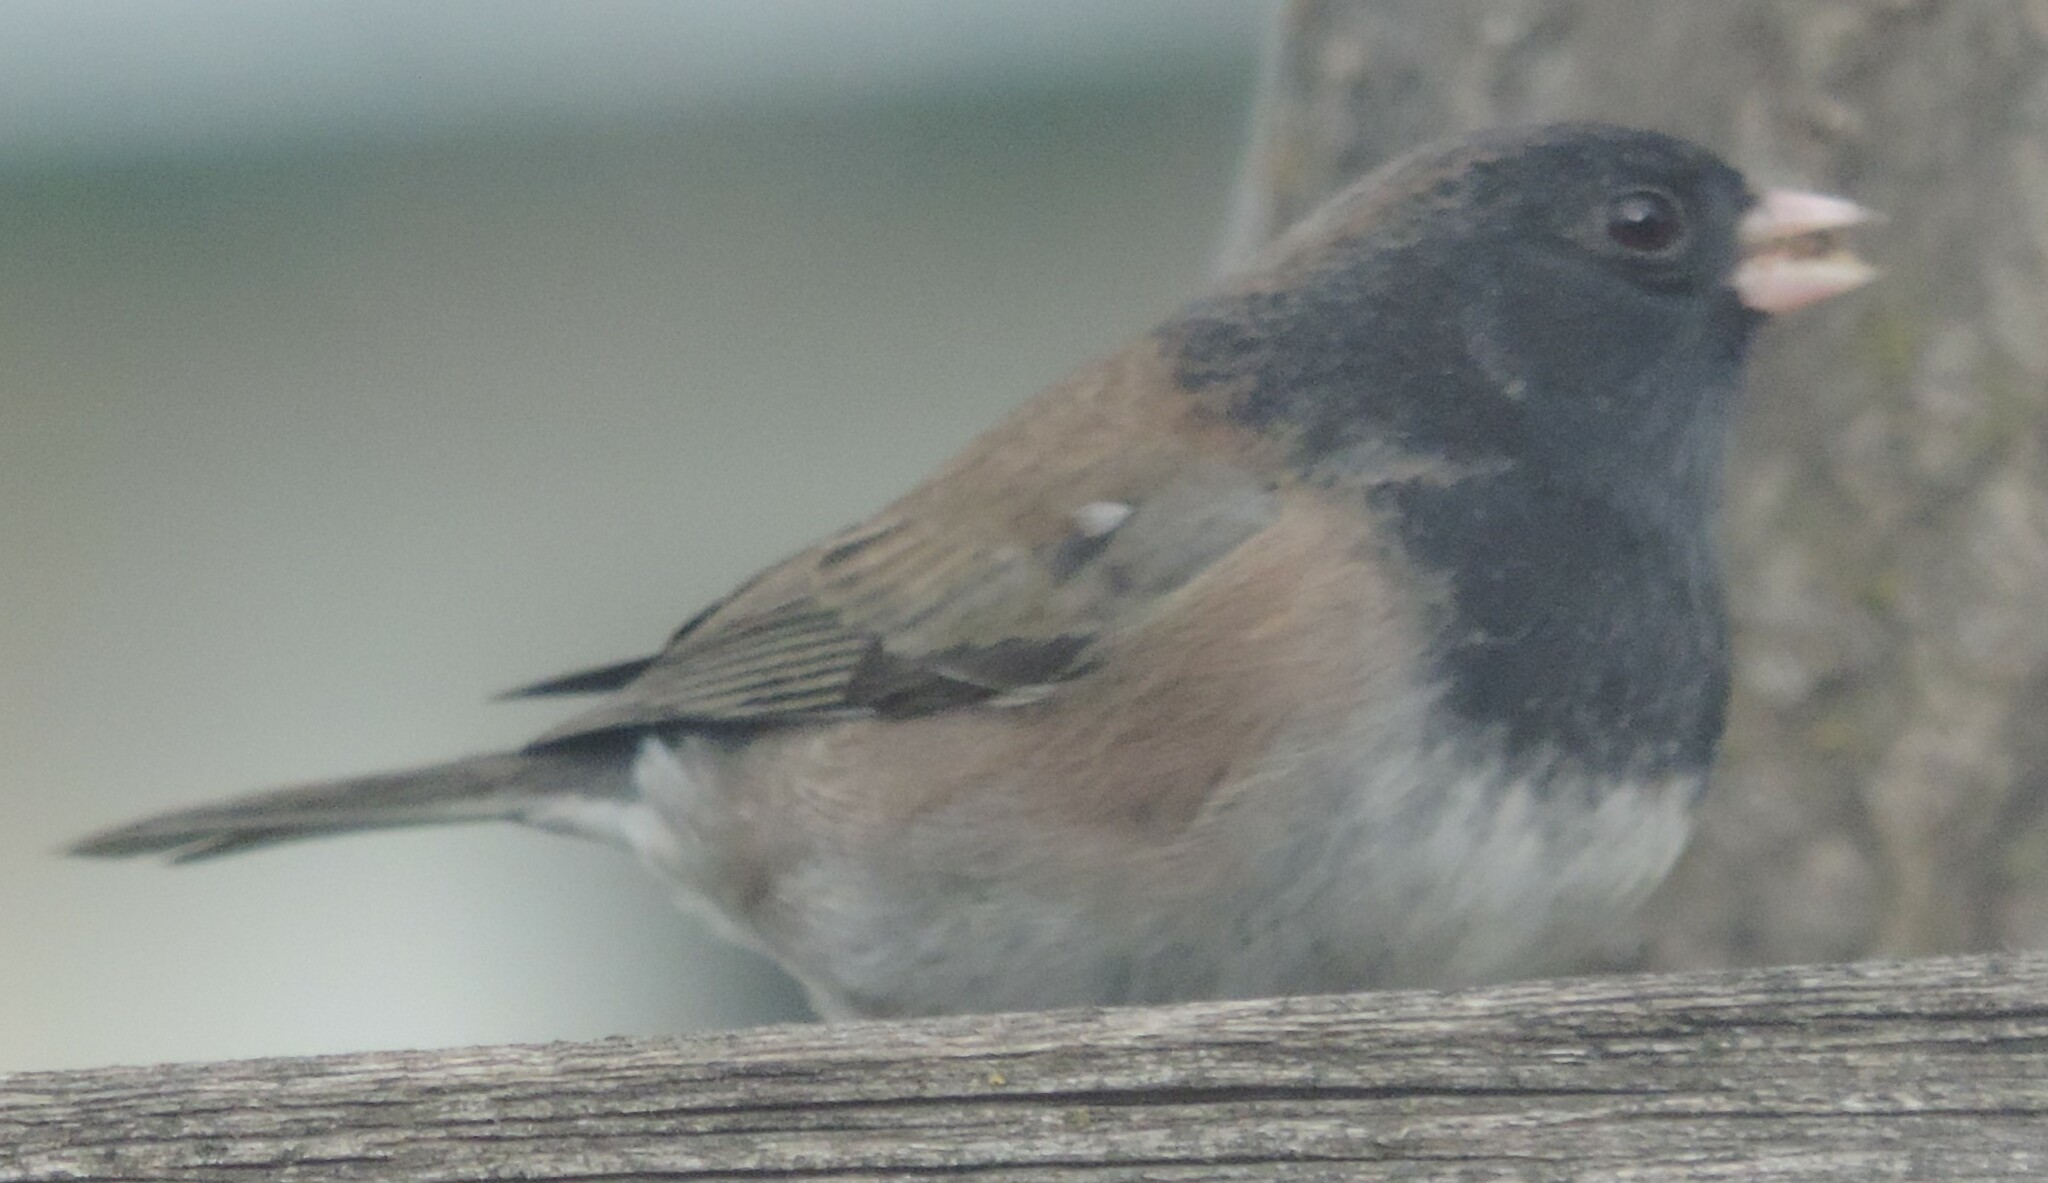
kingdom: Animalia
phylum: Chordata
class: Aves
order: Passeriformes
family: Passerellidae
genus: Junco
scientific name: Junco hyemalis
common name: Dark-eyed junco
